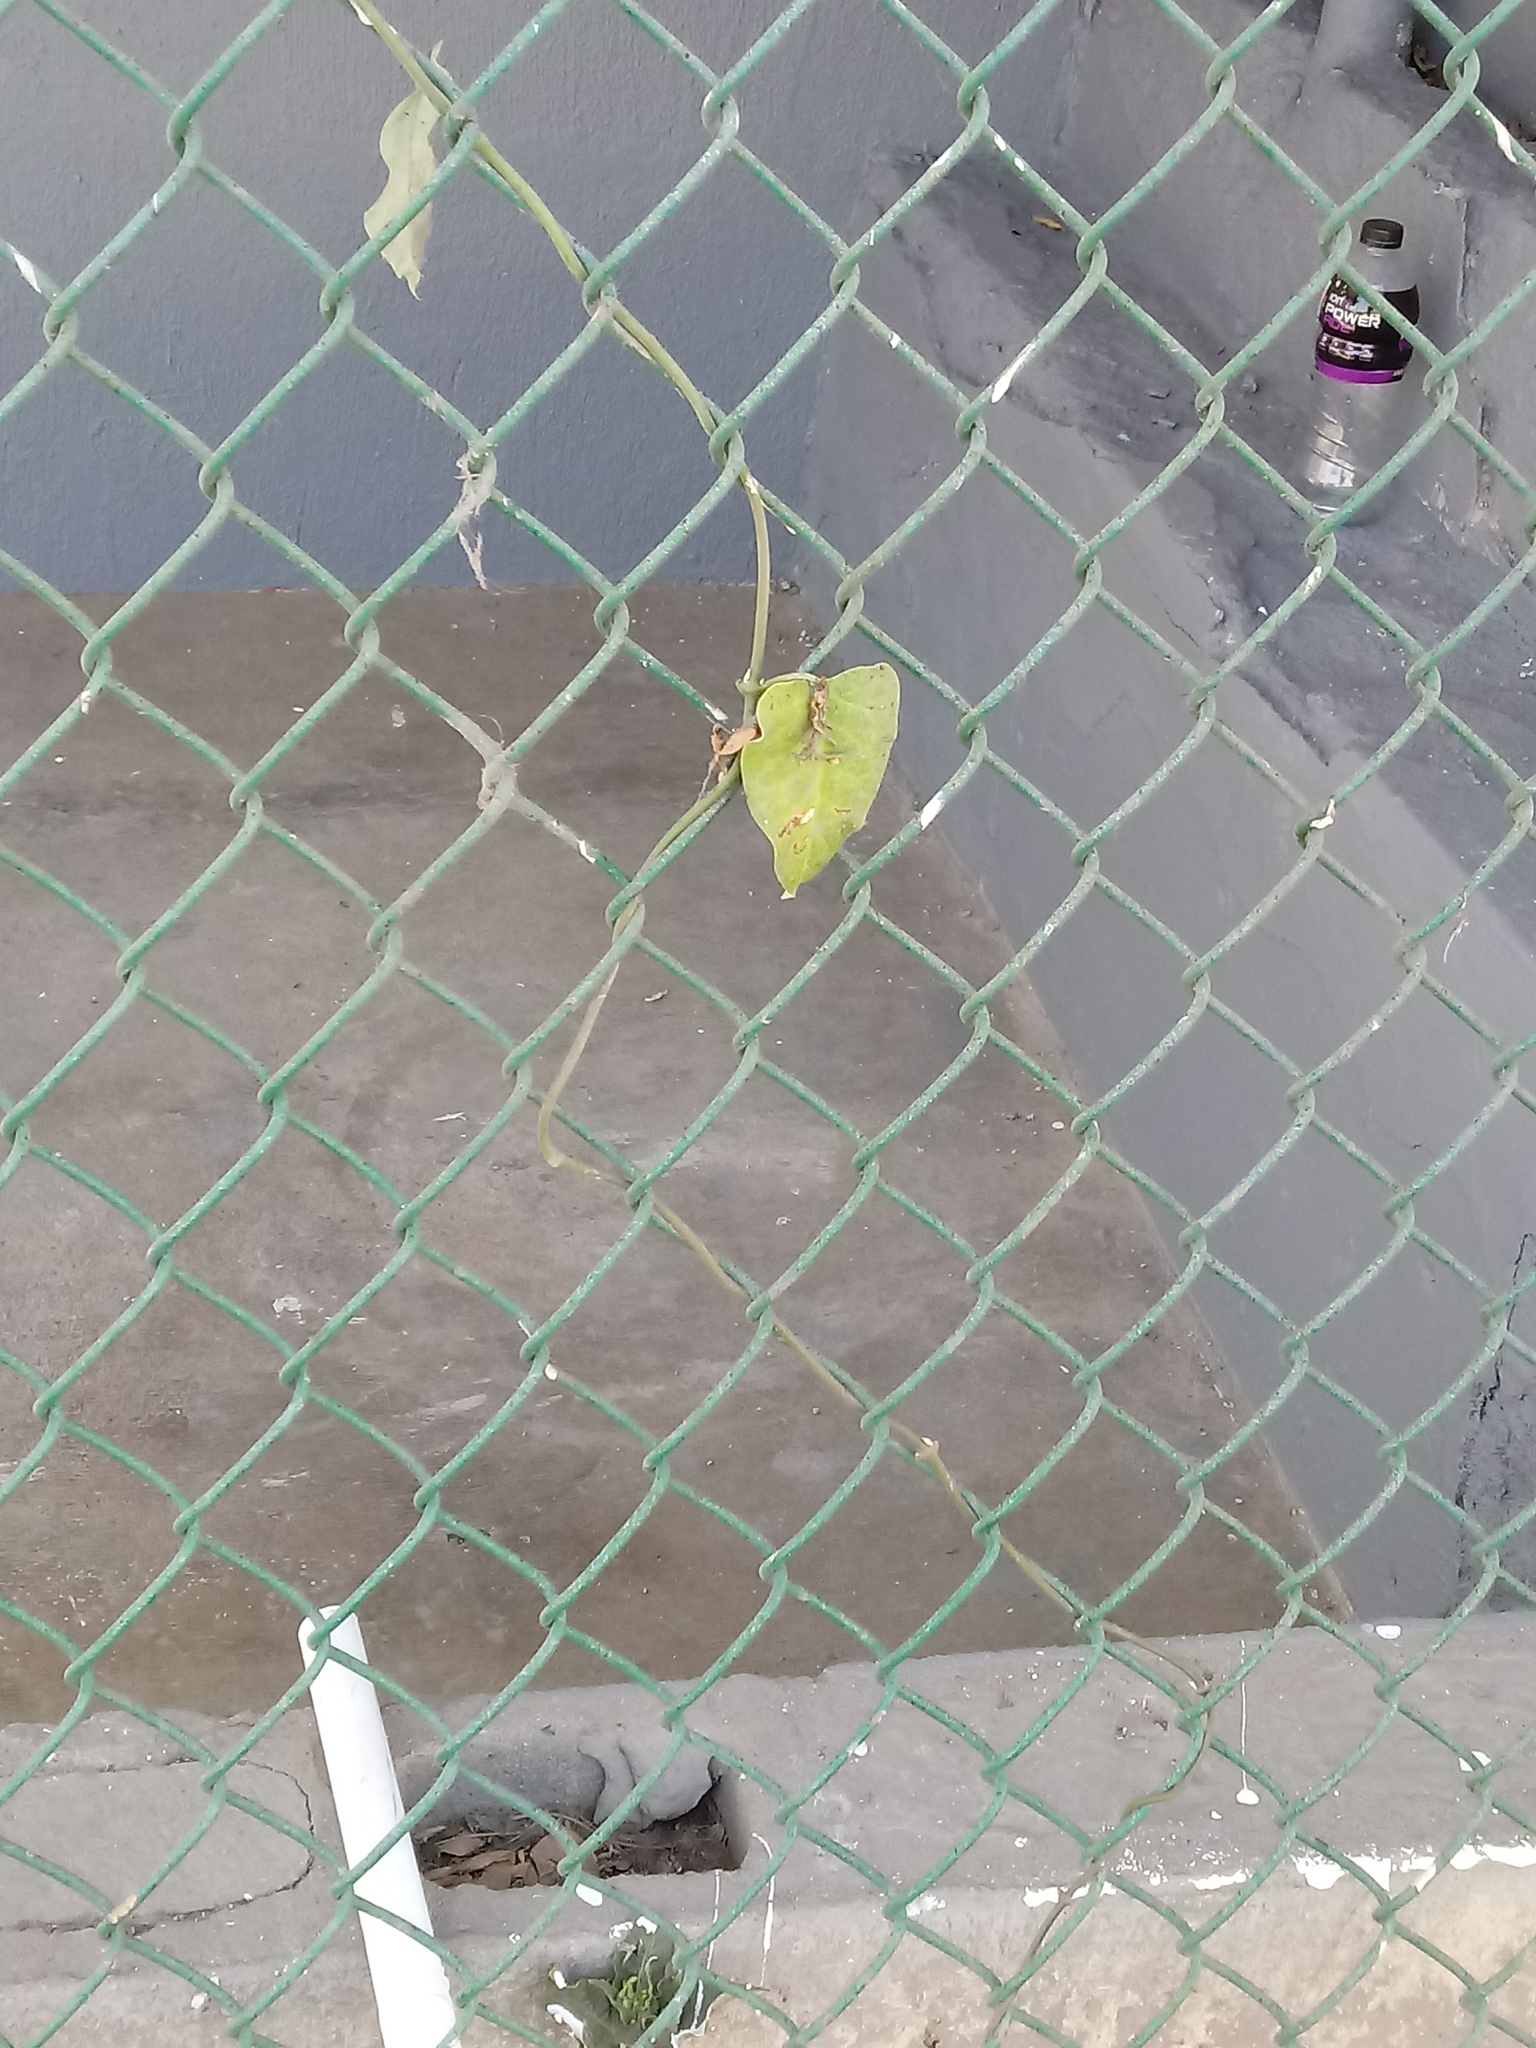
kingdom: Plantae
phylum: Tracheophyta
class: Magnoliopsida
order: Gentianales
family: Apocynaceae
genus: Araujia
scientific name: Araujia sericifera
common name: White bladderflower
